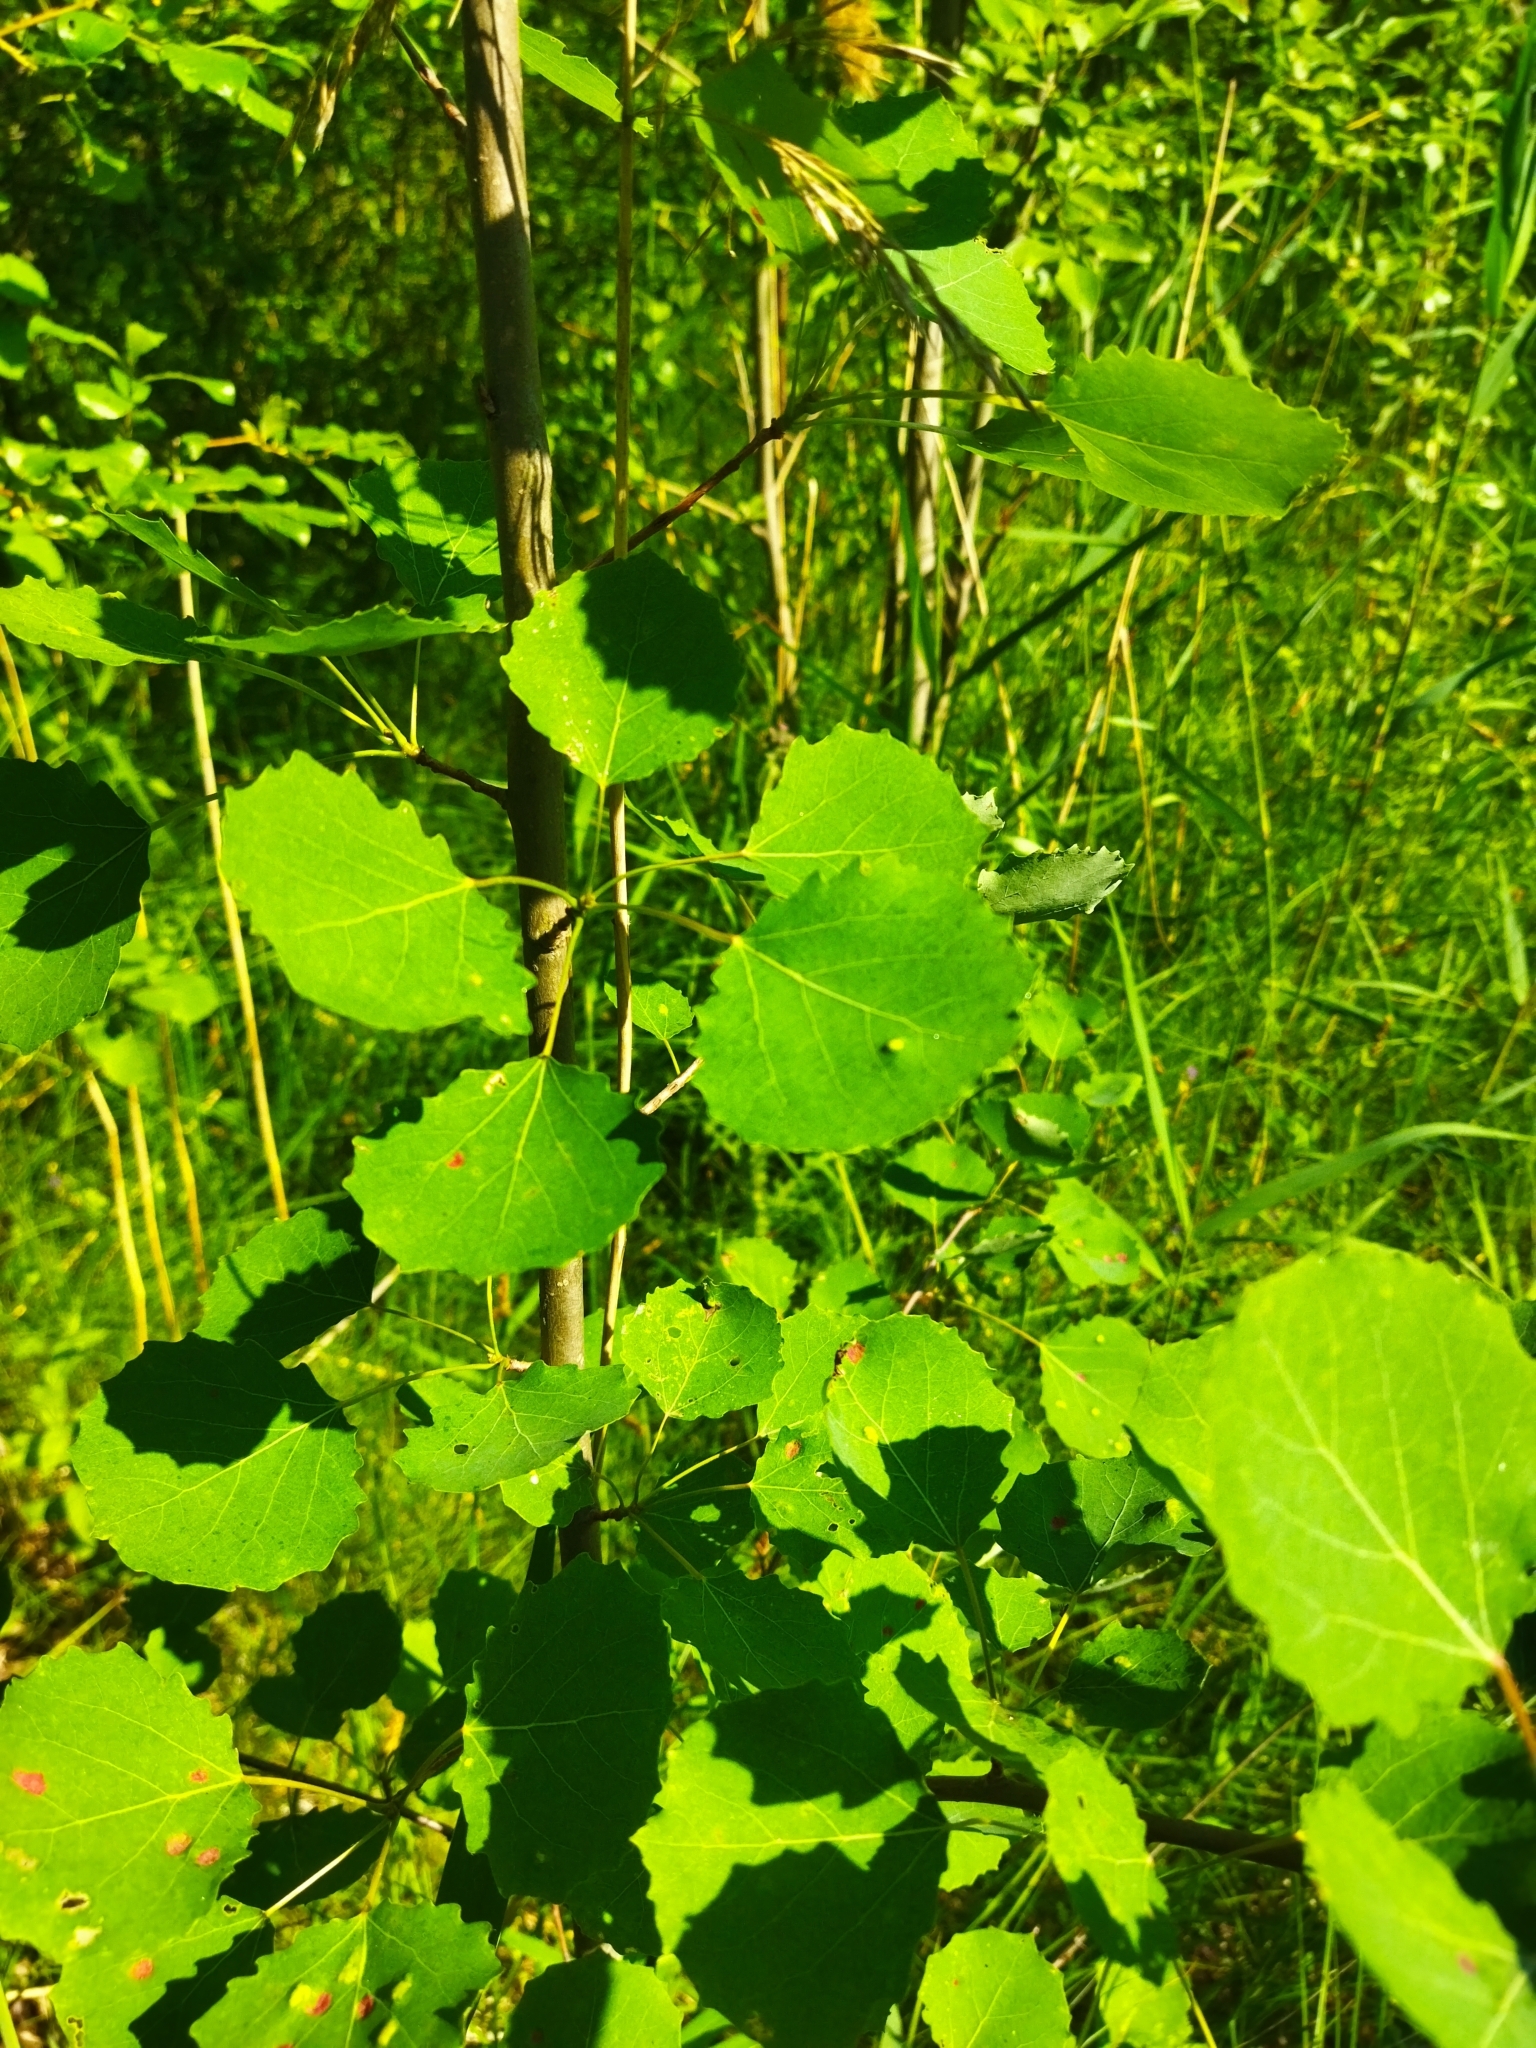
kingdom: Animalia
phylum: Arthropoda
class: Arachnida
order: Trombidiformes
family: Eriophyidae
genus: Phyllocoptes
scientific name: Phyllocoptes populi
